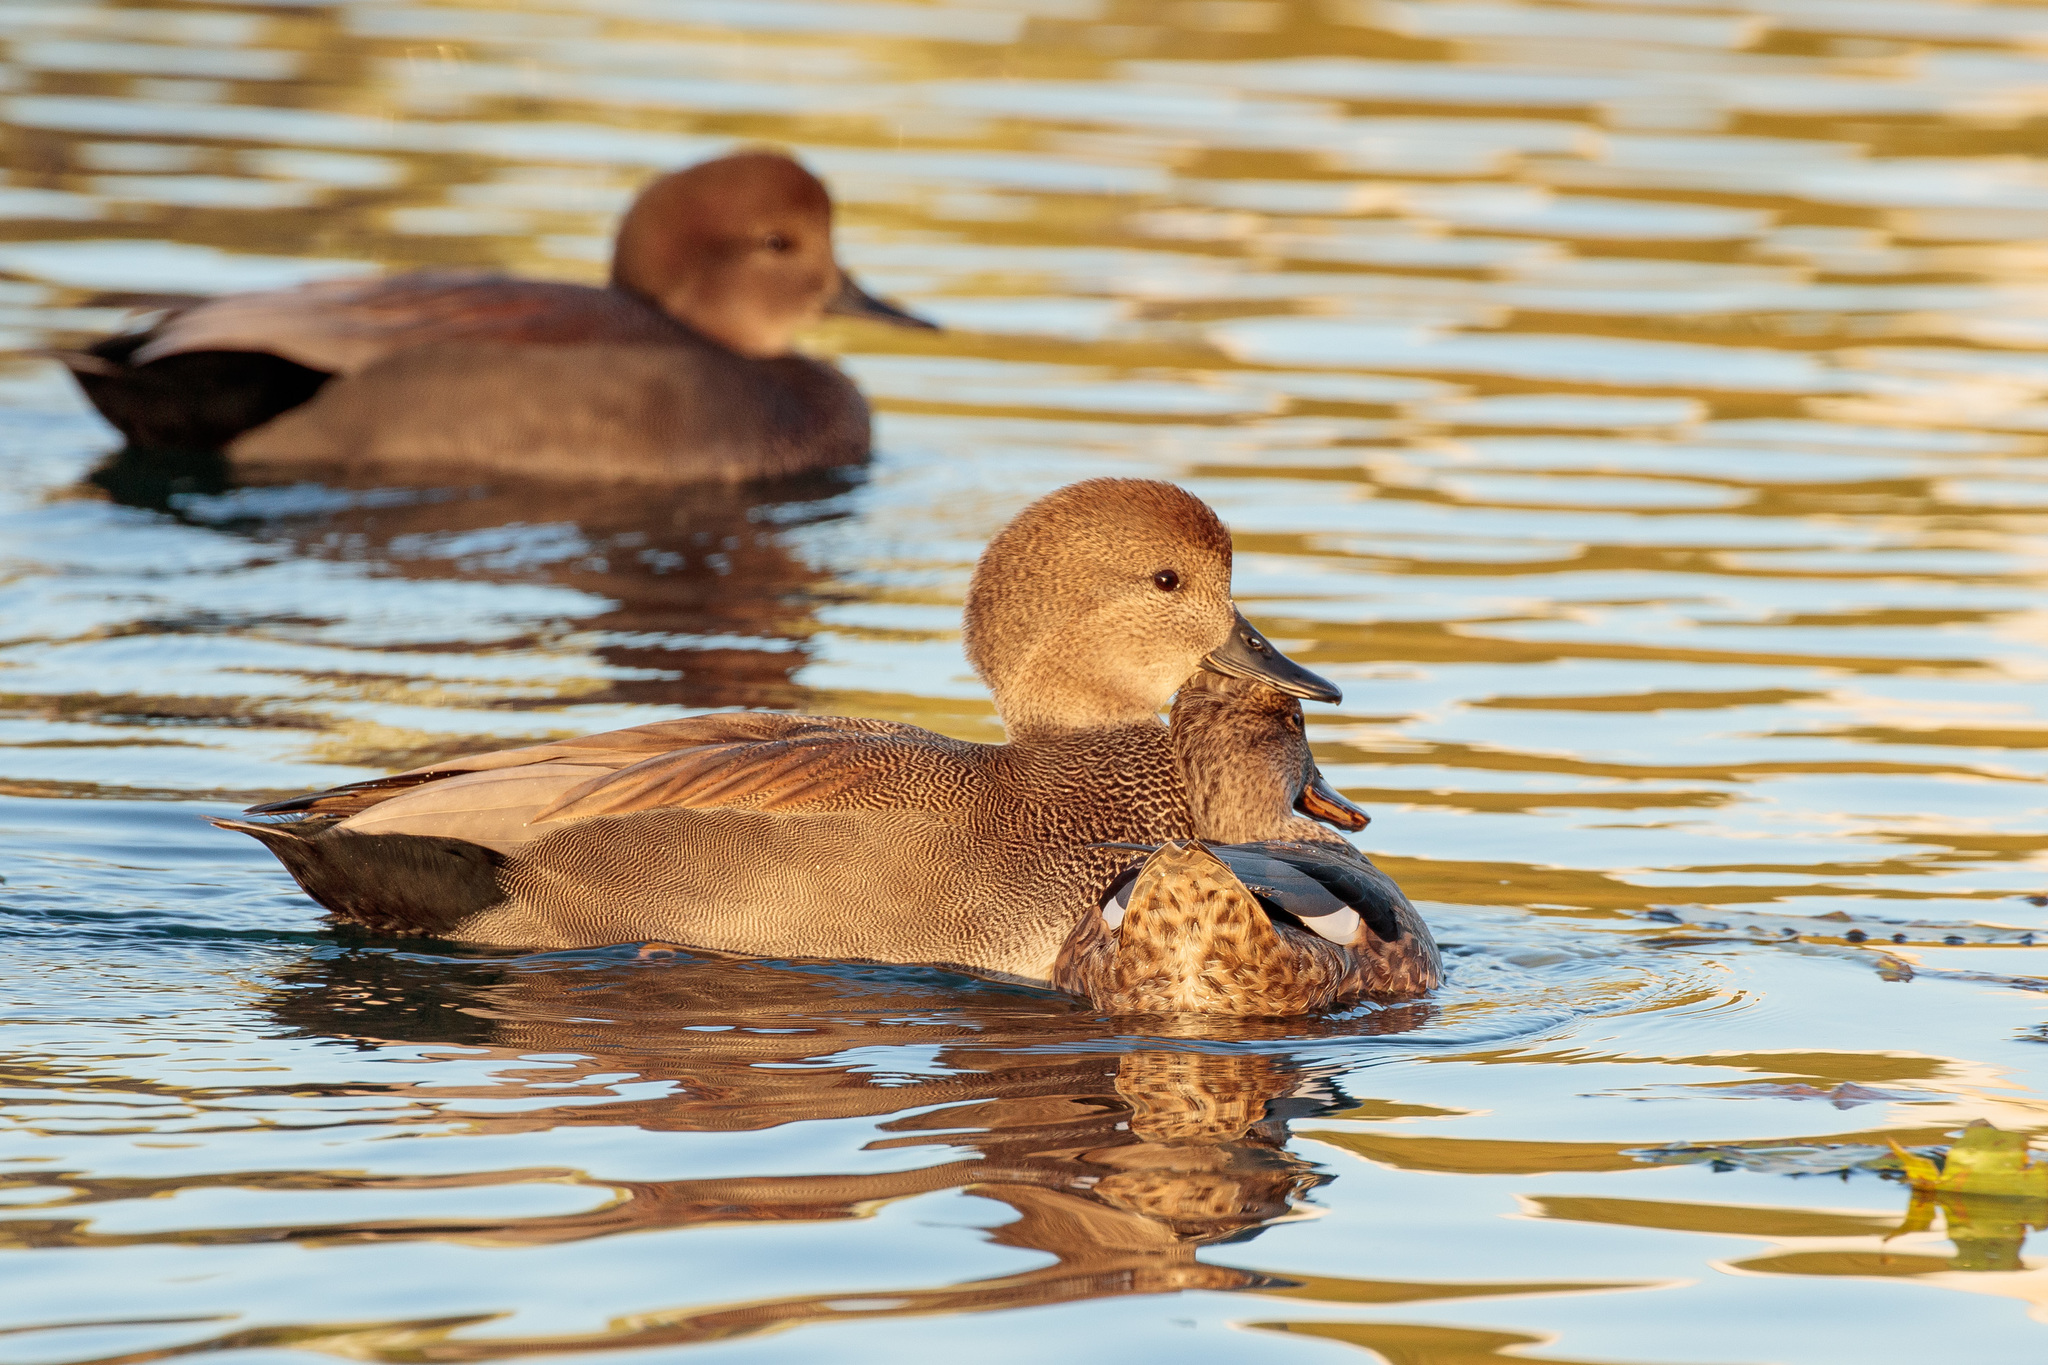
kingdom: Animalia
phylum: Chordata
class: Aves
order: Anseriformes
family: Anatidae
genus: Mareca
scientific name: Mareca strepera
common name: Gadwall
